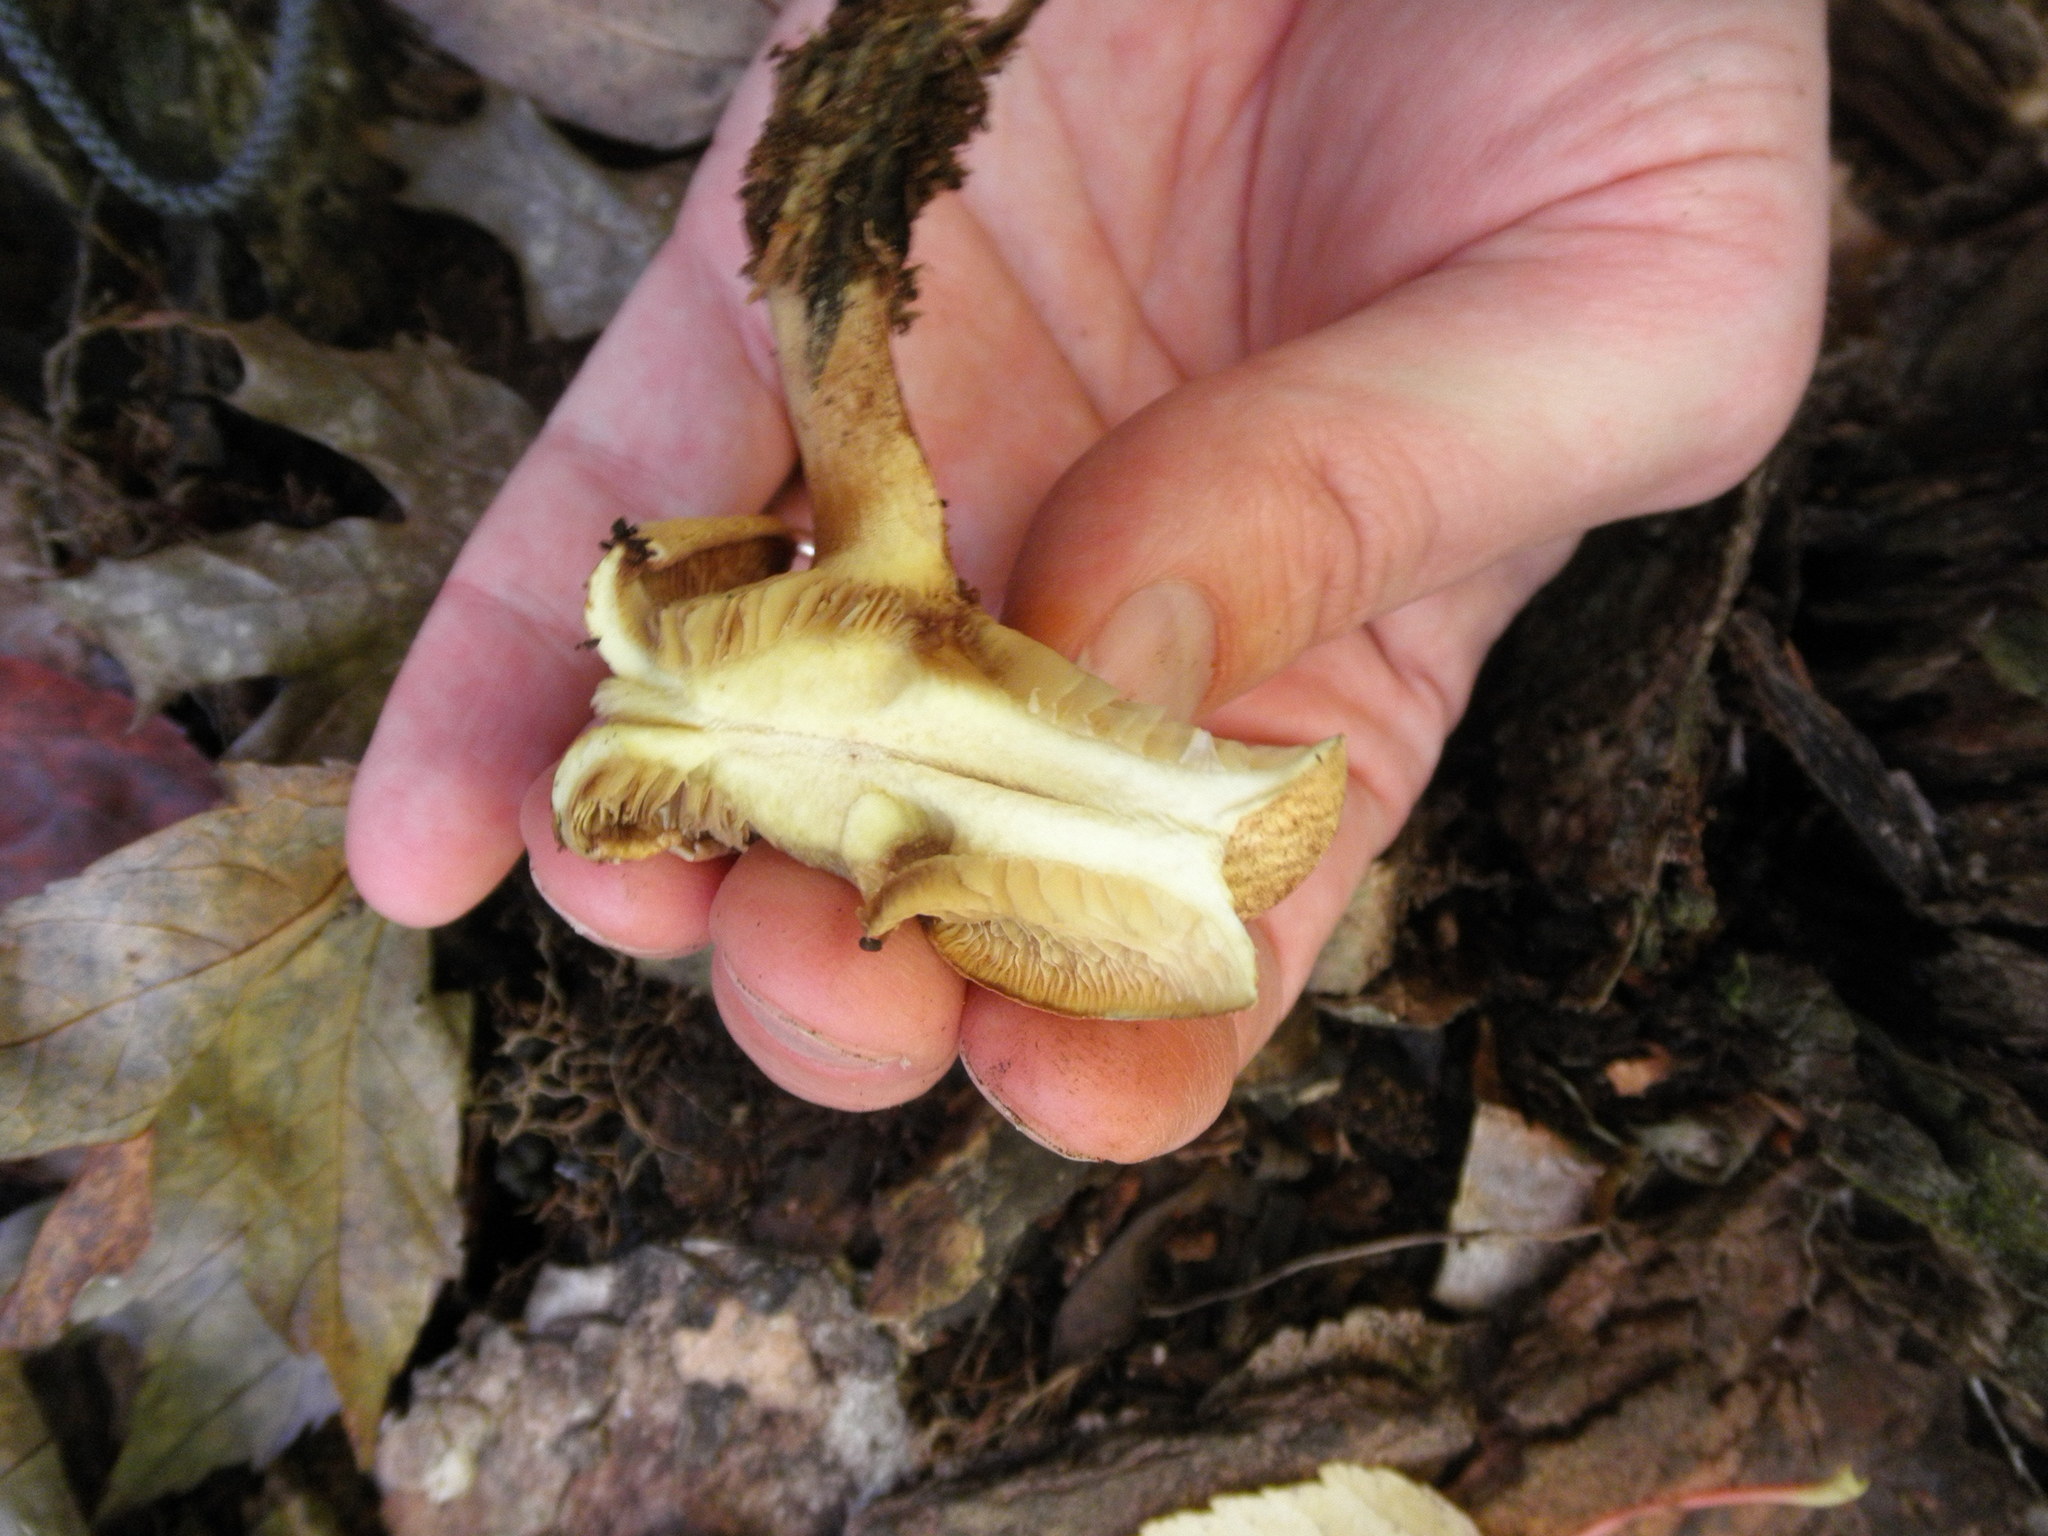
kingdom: Fungi
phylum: Basidiomycota
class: Agaricomycetes
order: Boletales
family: Paxillaceae
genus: Paxillus
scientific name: Paxillus involutus
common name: Brown roll rim
